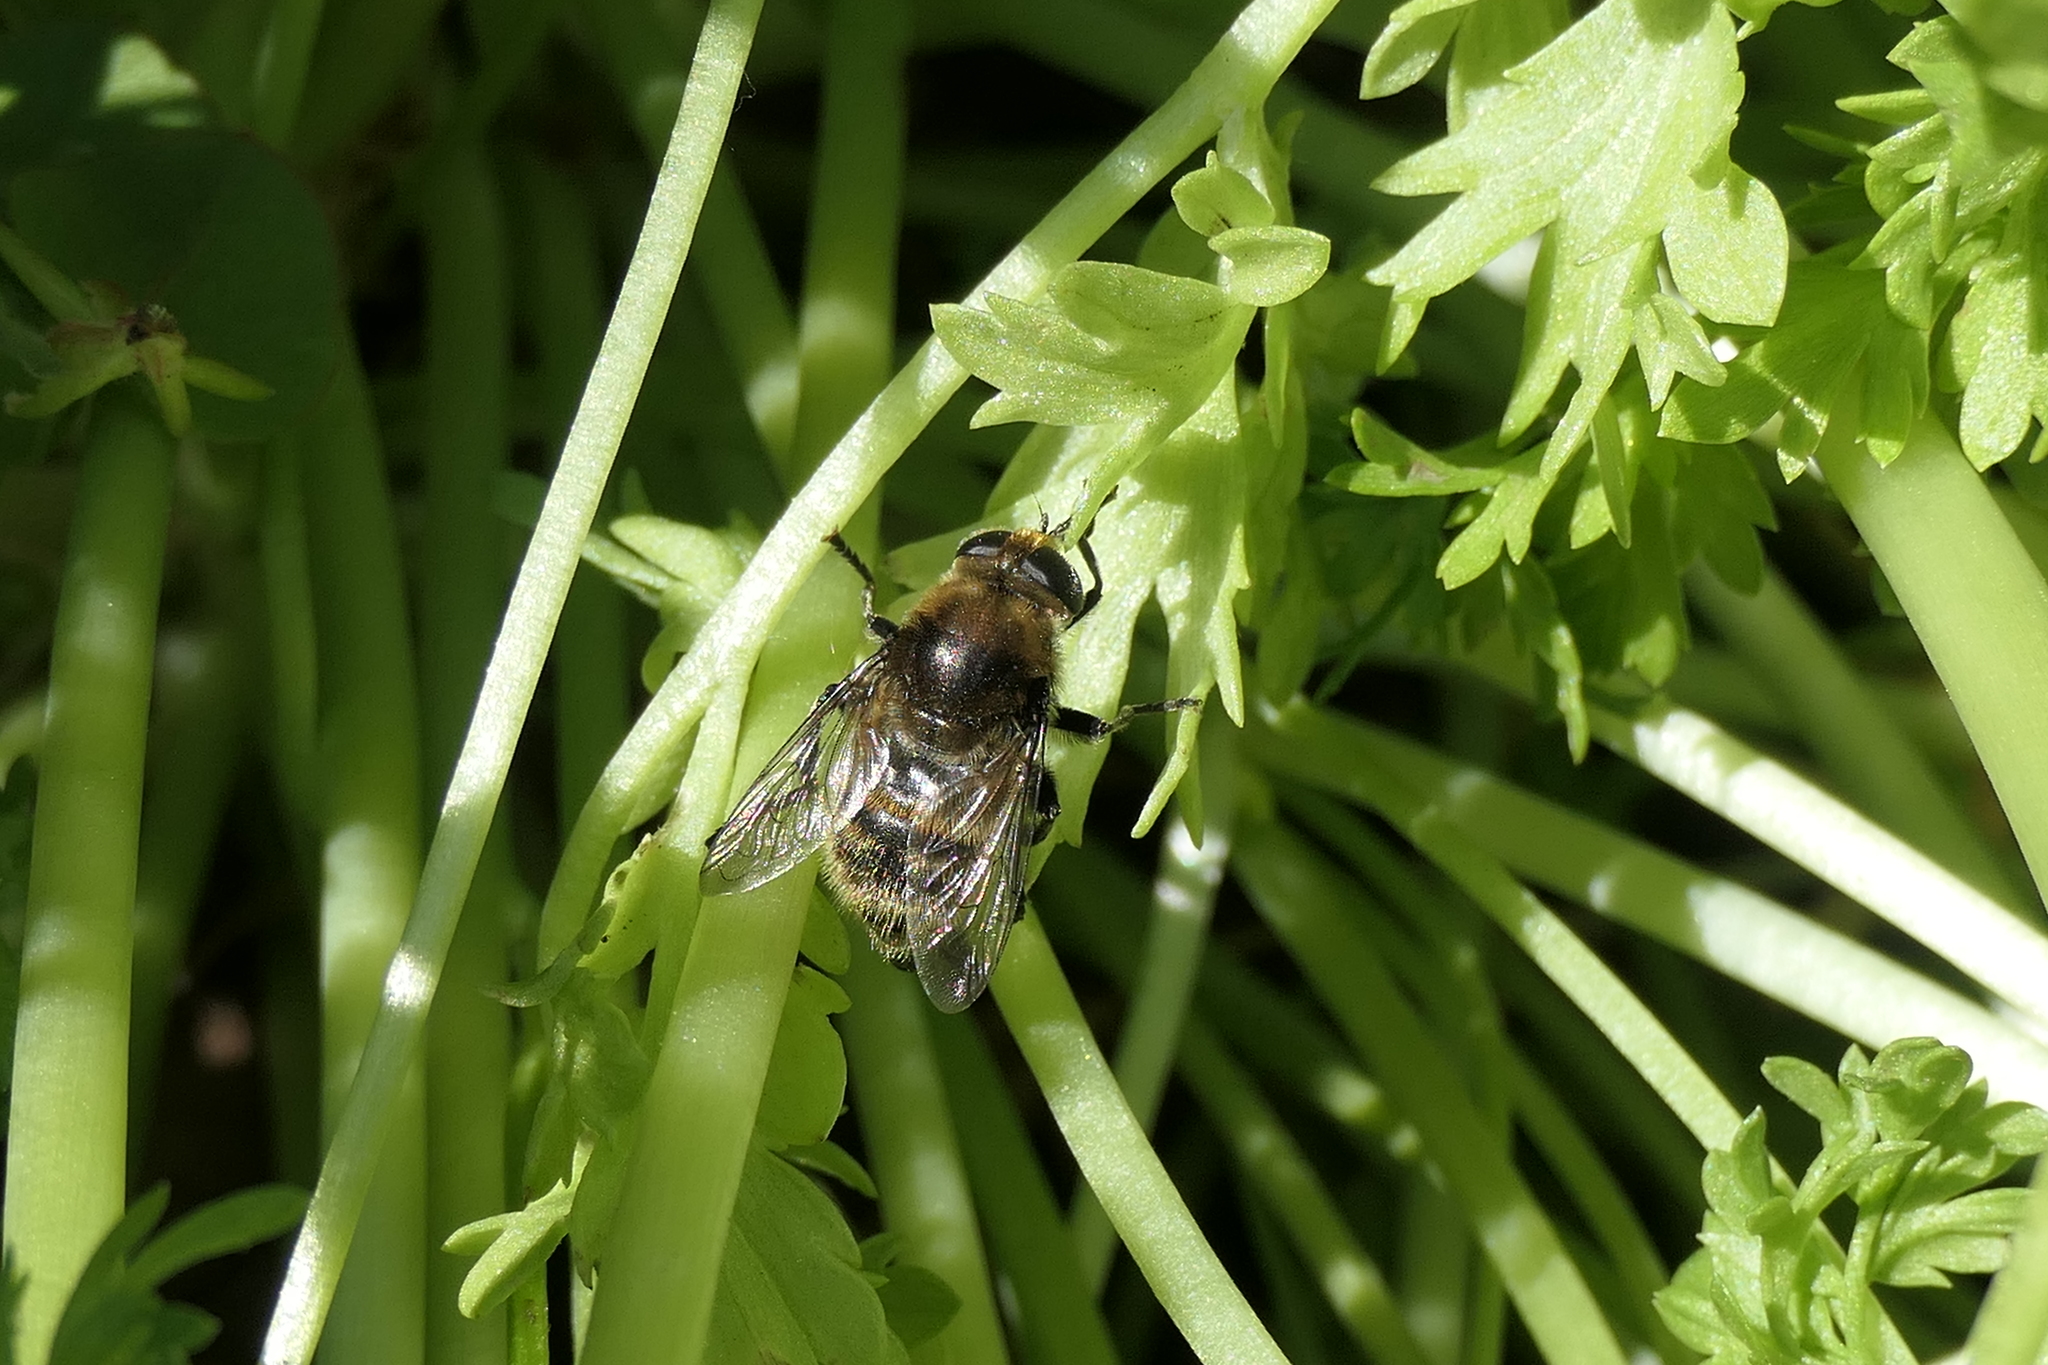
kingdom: Animalia
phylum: Arthropoda
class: Insecta
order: Diptera
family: Syrphidae
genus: Merodon
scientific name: Merodon equestris
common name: Greater bulb-fly
